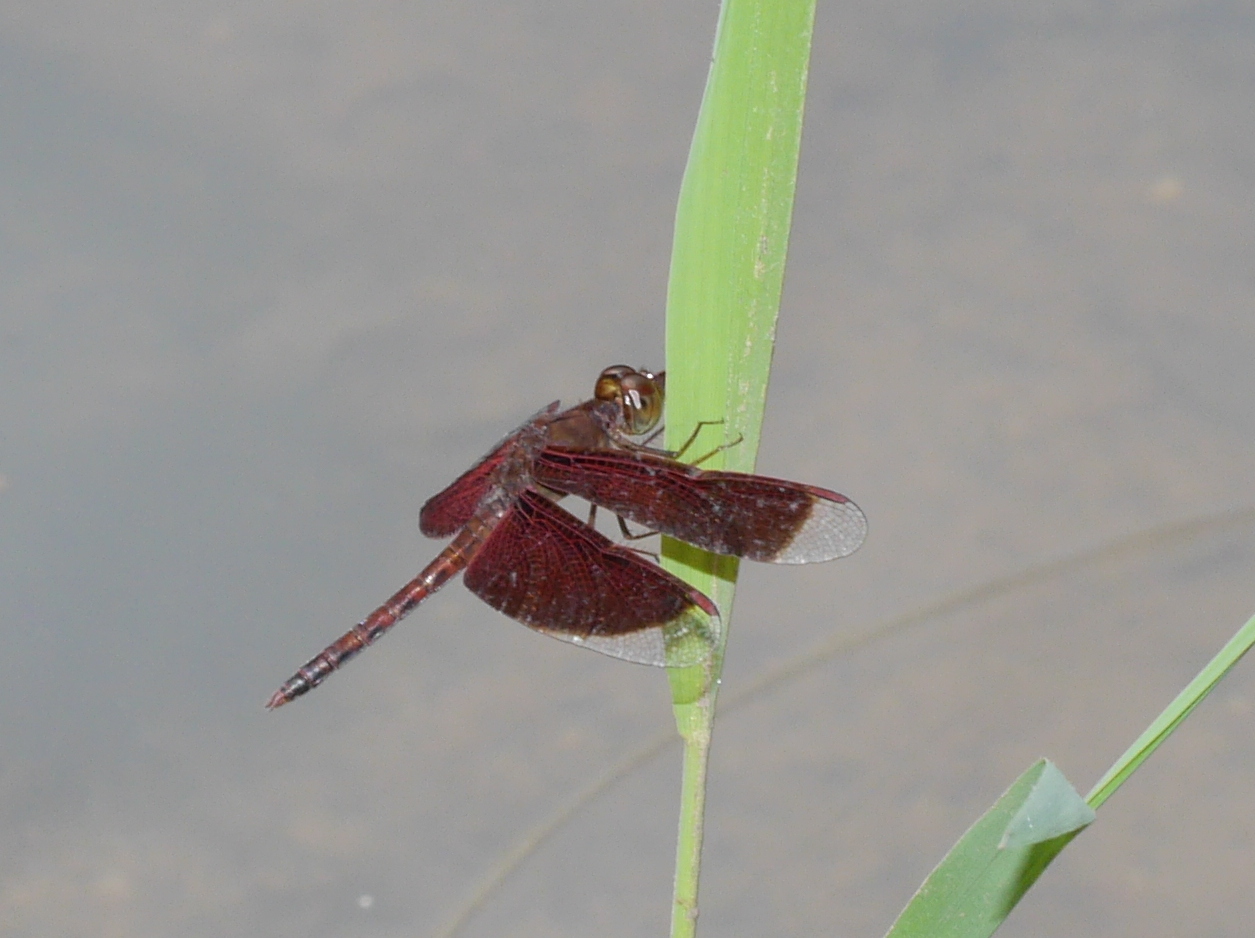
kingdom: Animalia
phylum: Arthropoda
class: Insecta
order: Odonata
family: Libellulidae
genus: Neurothemis
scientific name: Neurothemis fluctuans
